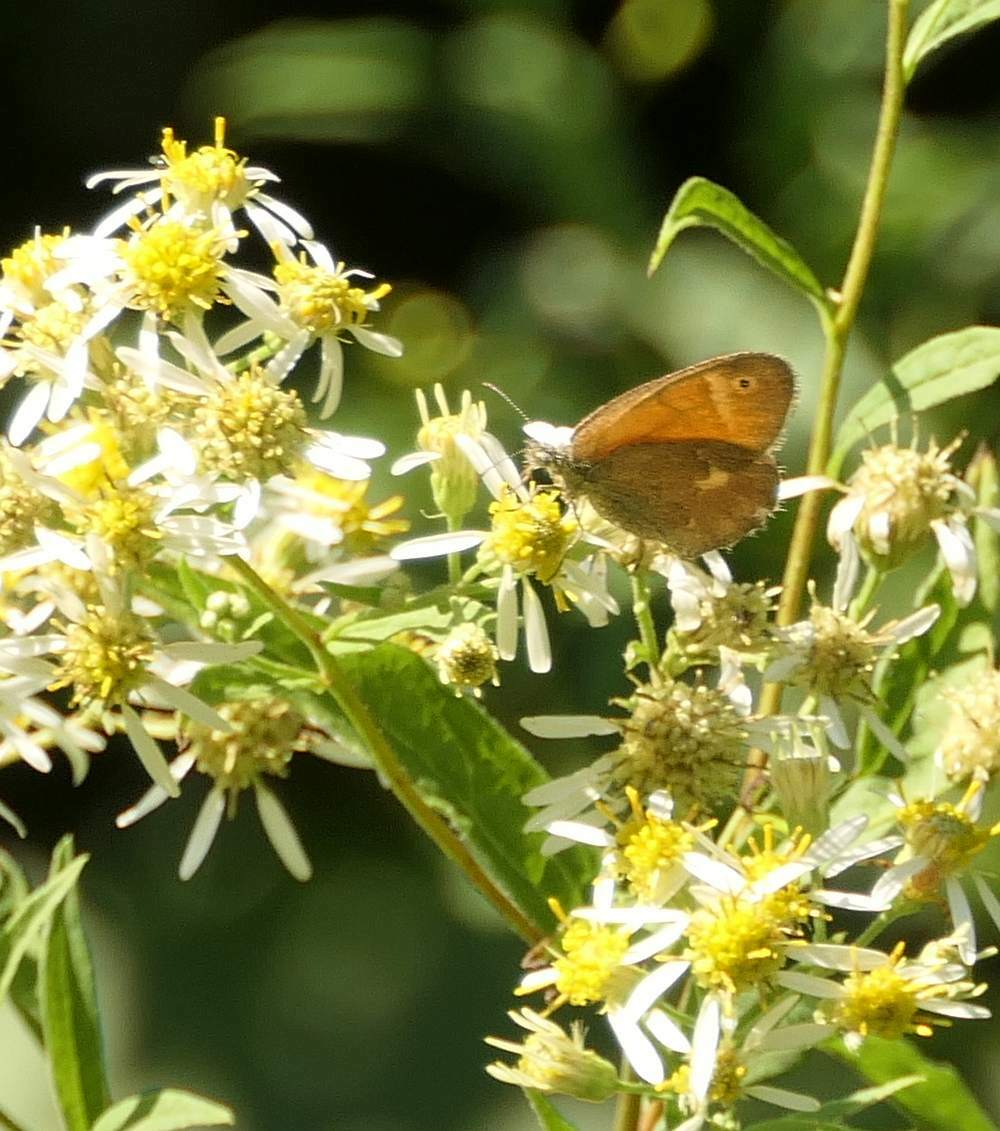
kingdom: Animalia
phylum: Arthropoda
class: Insecta
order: Lepidoptera
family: Nymphalidae
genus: Coenonympha
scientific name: Coenonympha california
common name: Common ringlet
